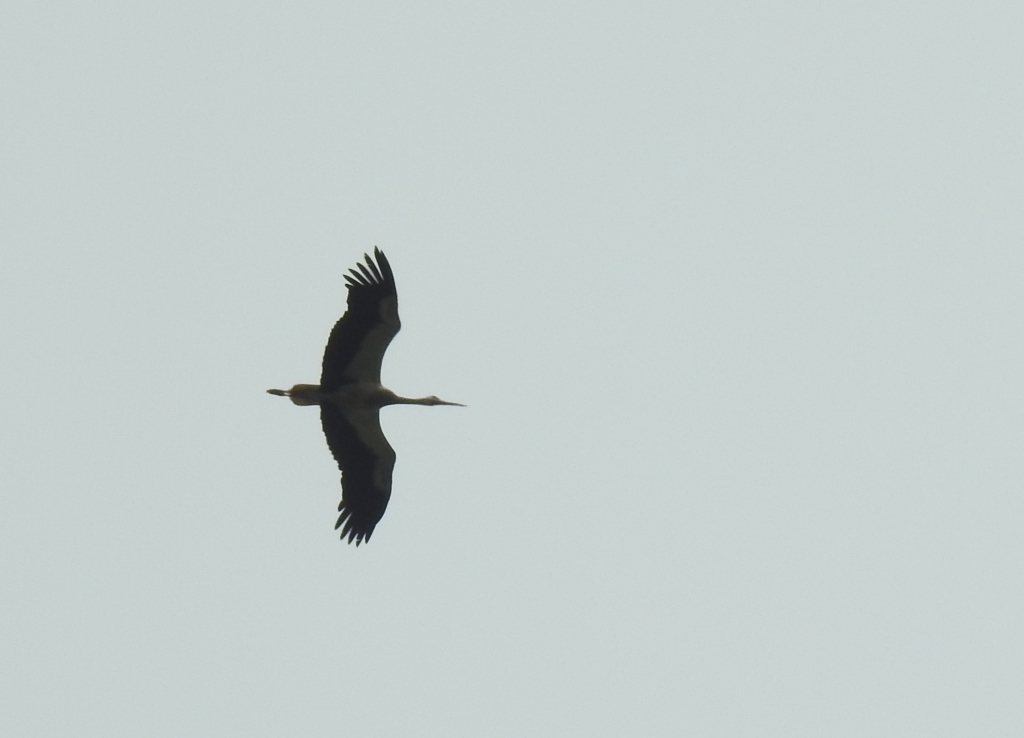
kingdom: Animalia
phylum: Chordata
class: Aves
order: Ciconiiformes
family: Ciconiidae
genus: Ciconia
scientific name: Ciconia ciconia
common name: White stork
